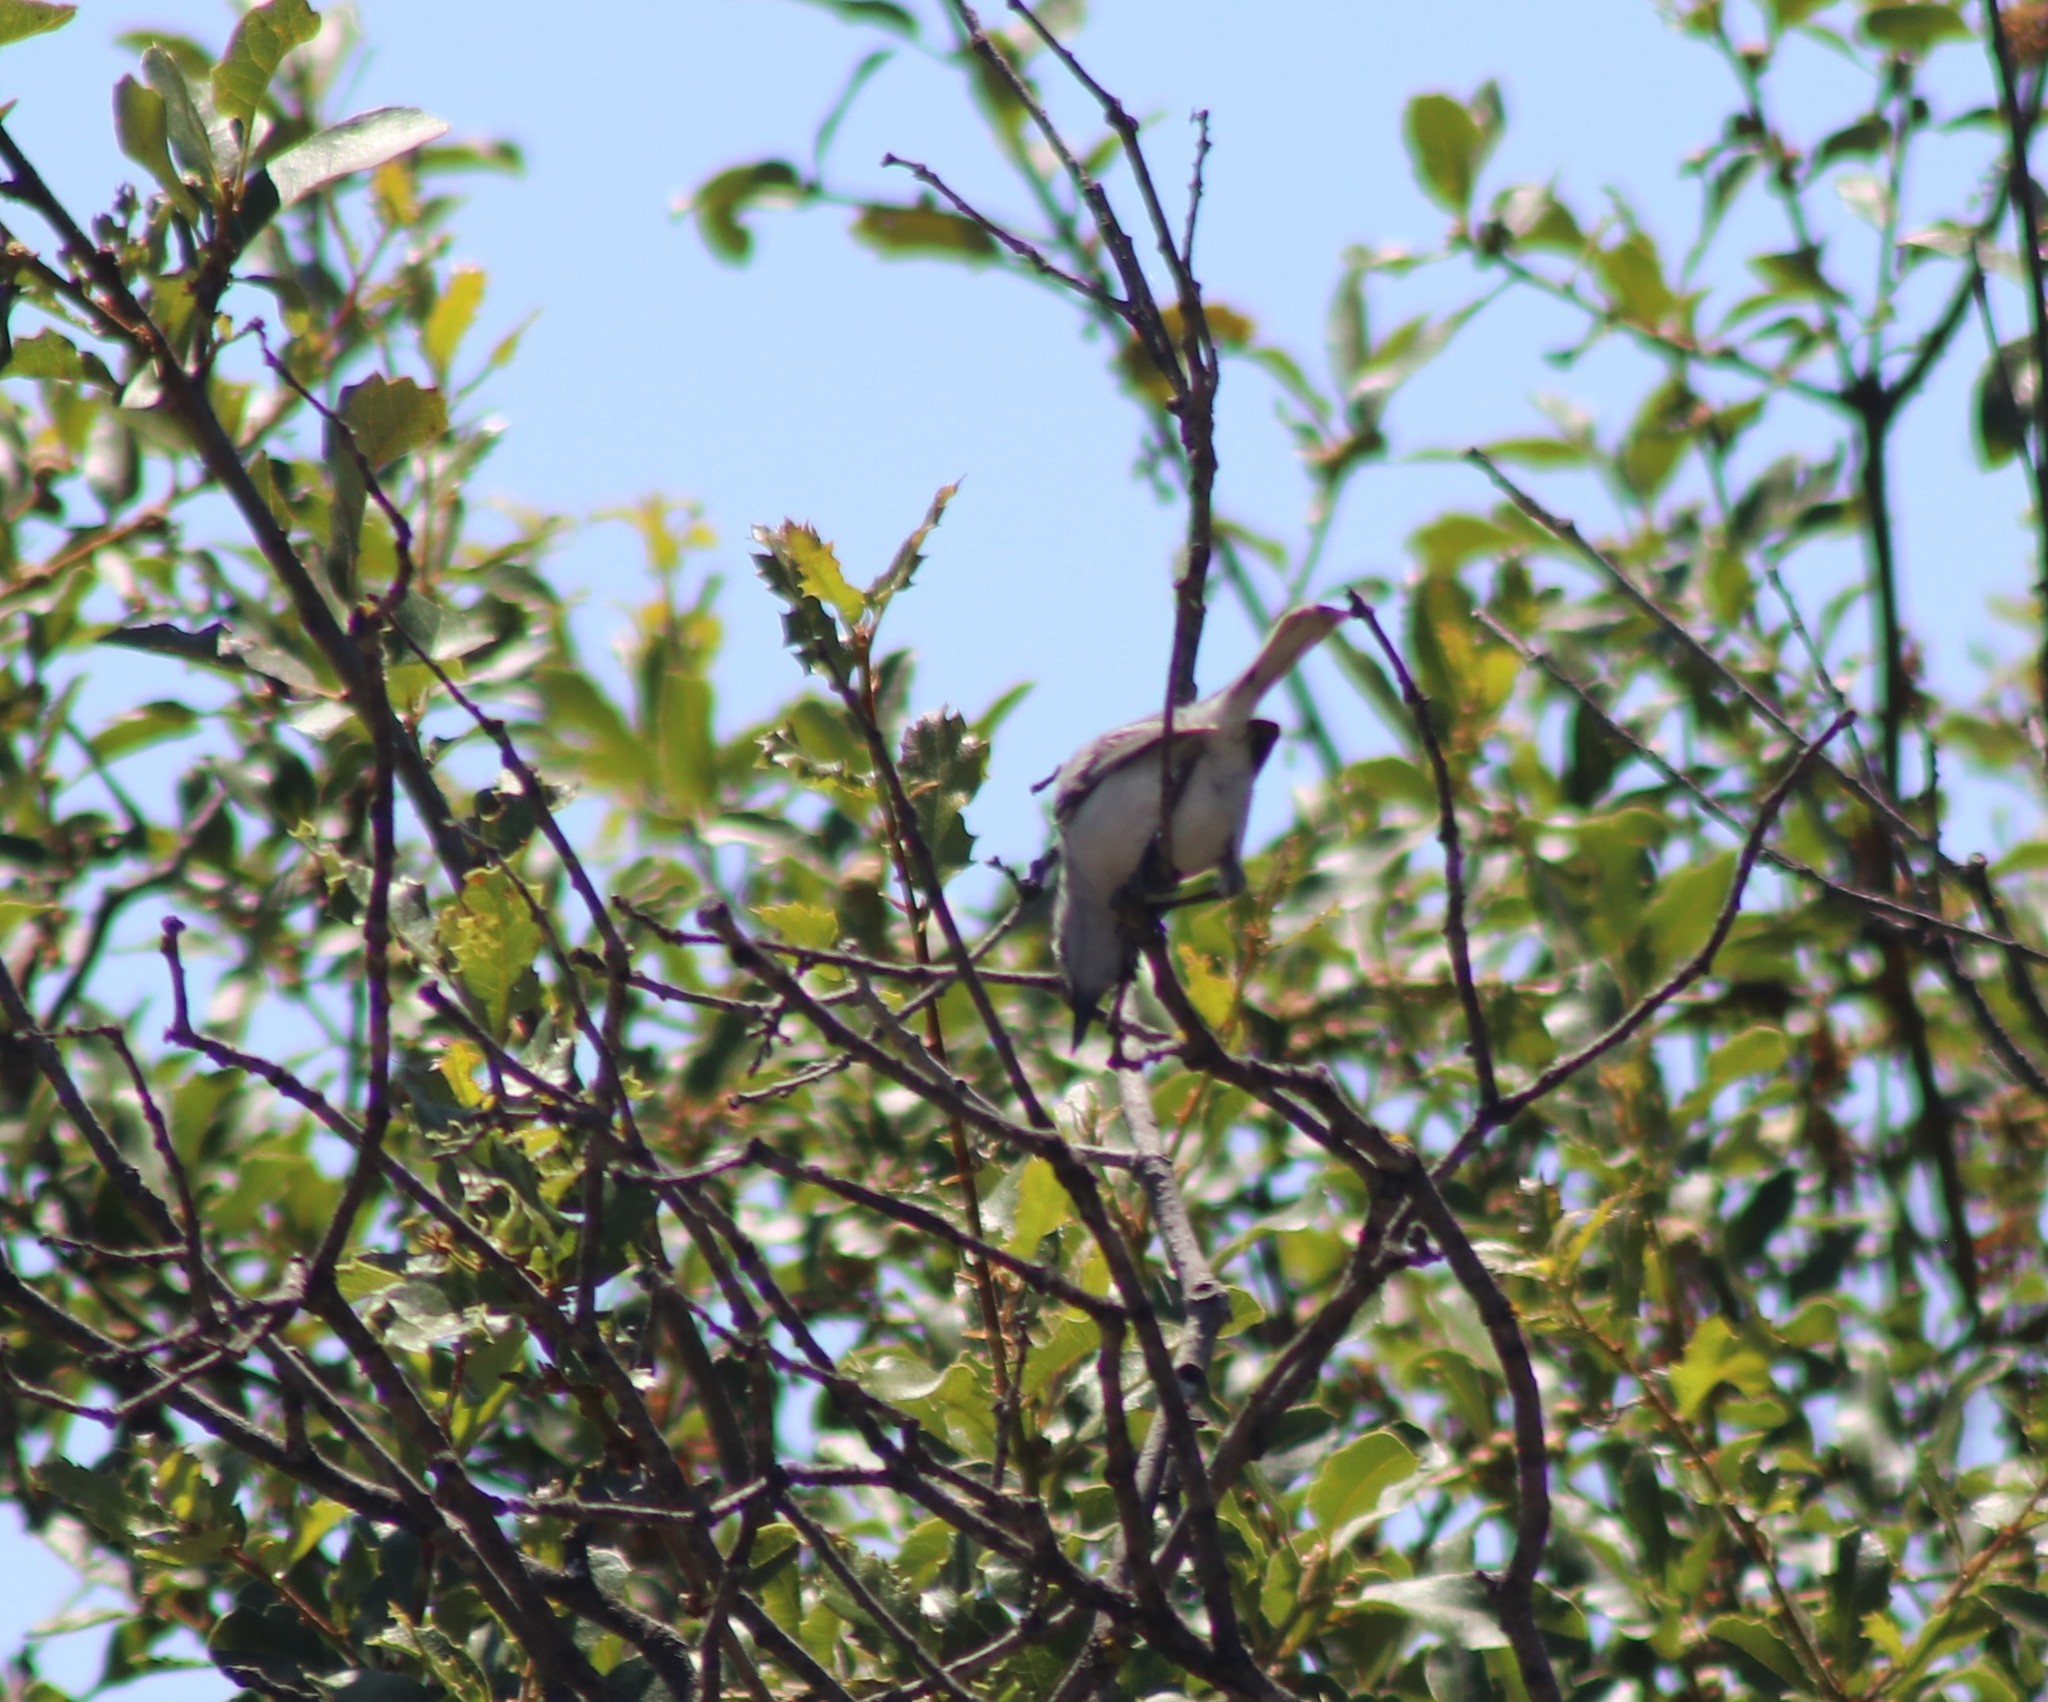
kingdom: Animalia
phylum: Chordata
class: Aves
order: Passeriformes
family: Polioptilidae
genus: Polioptila
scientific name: Polioptila caerulea
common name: Blue-gray gnatcatcher
